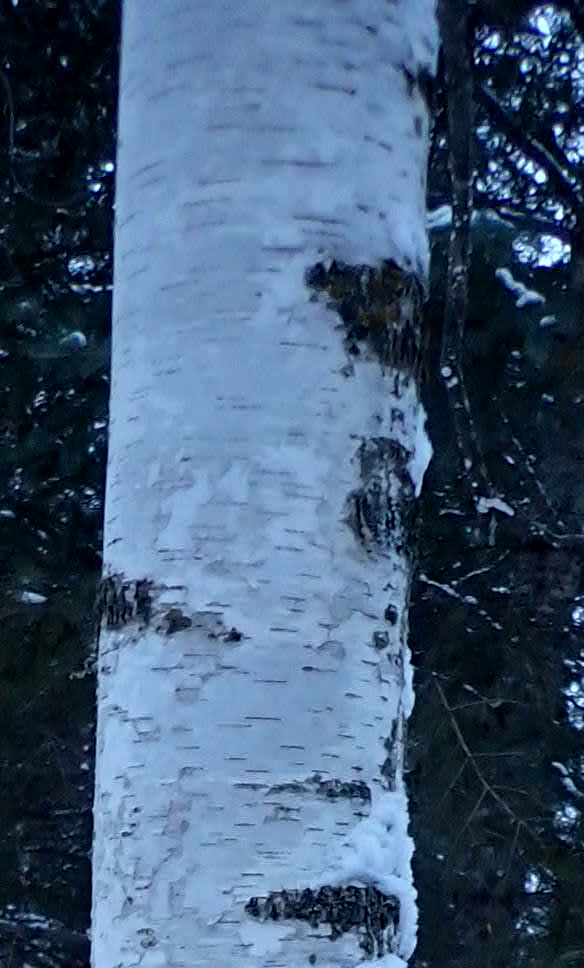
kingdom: Plantae
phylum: Tracheophyta
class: Magnoliopsida
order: Fagales
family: Betulaceae
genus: Betula
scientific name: Betula papyrifera
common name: Paper birch
